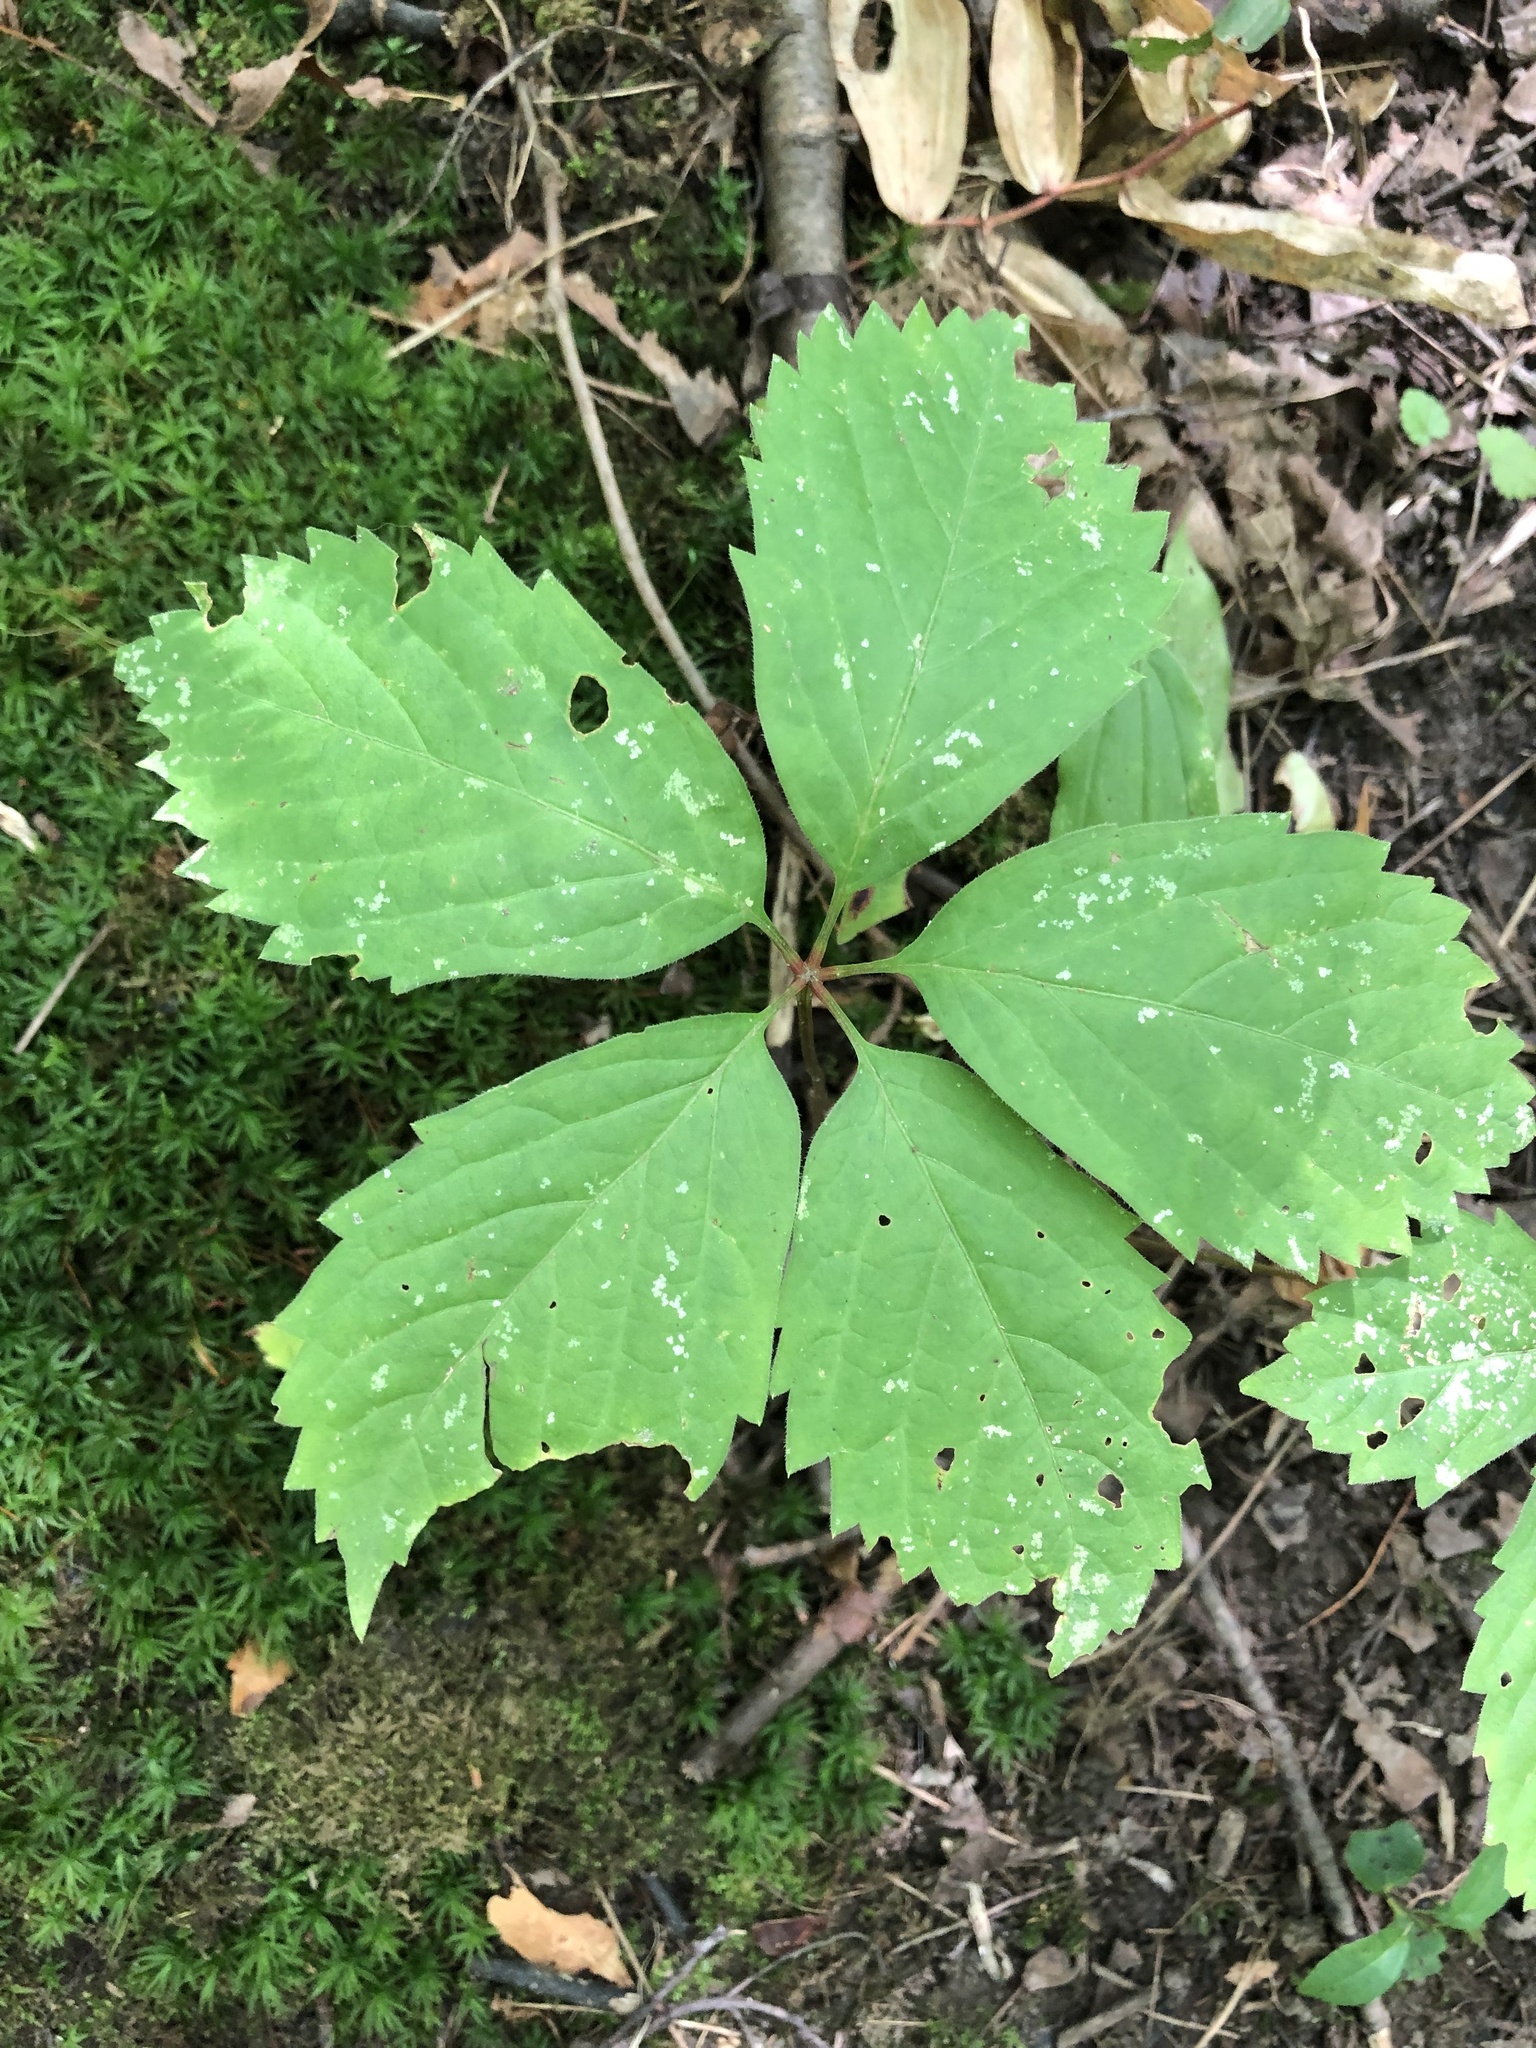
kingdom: Plantae
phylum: Tracheophyta
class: Magnoliopsida
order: Vitales
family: Vitaceae
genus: Parthenocissus
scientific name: Parthenocissus inserta
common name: False virginia-creeper
